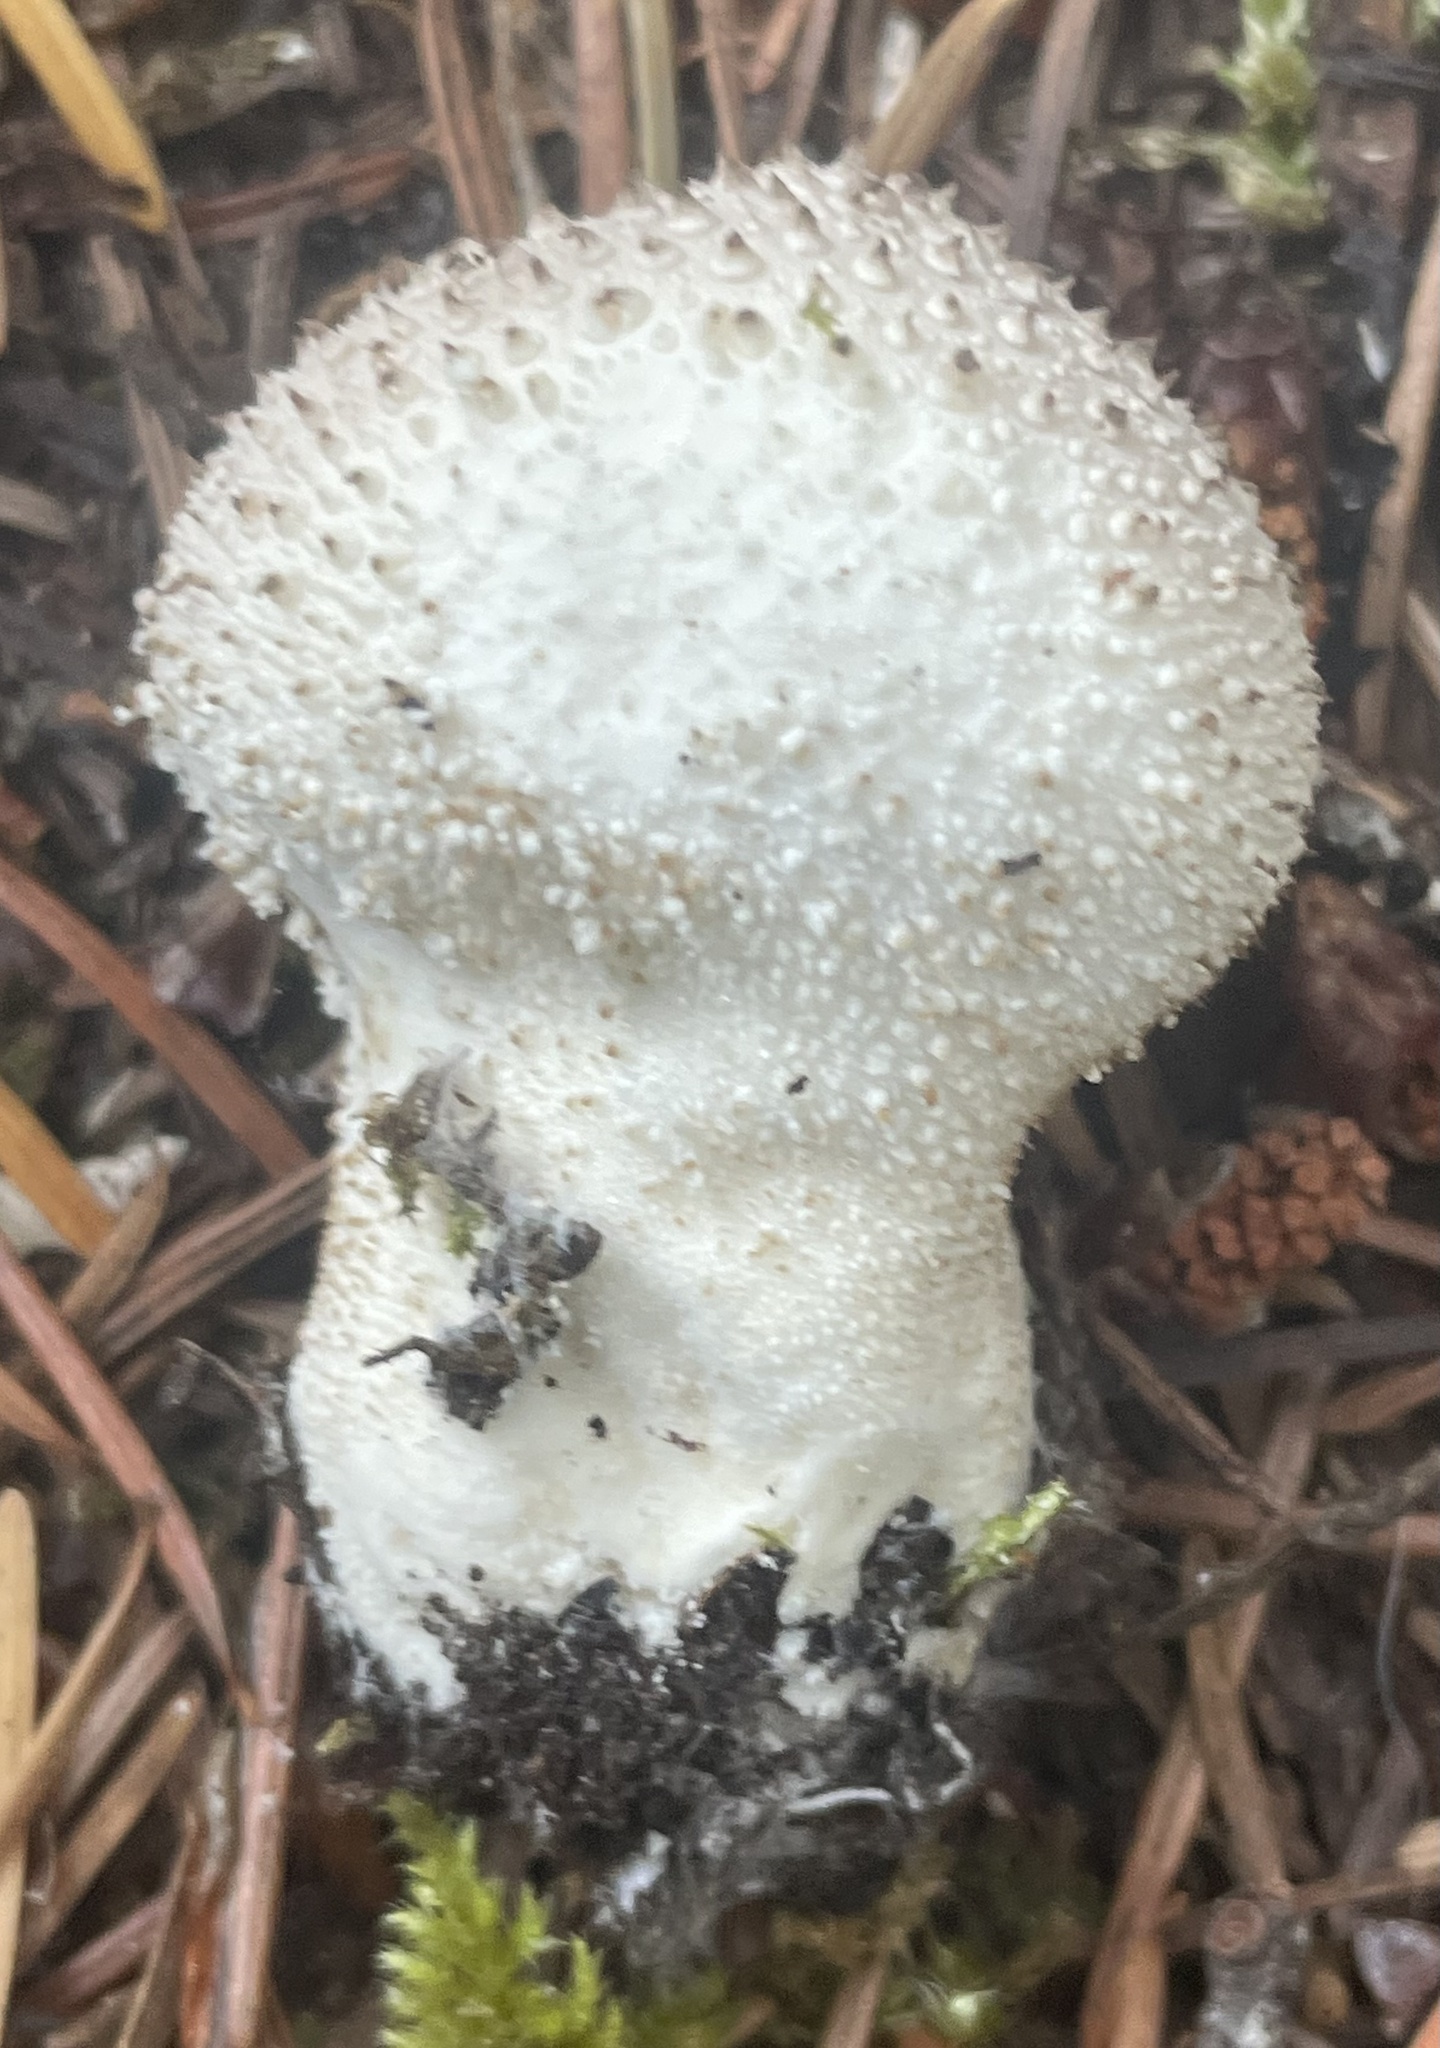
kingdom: Fungi
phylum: Basidiomycota
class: Agaricomycetes
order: Agaricales
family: Lycoperdaceae
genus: Lycoperdon
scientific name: Lycoperdon perlatum
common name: Common puffball
